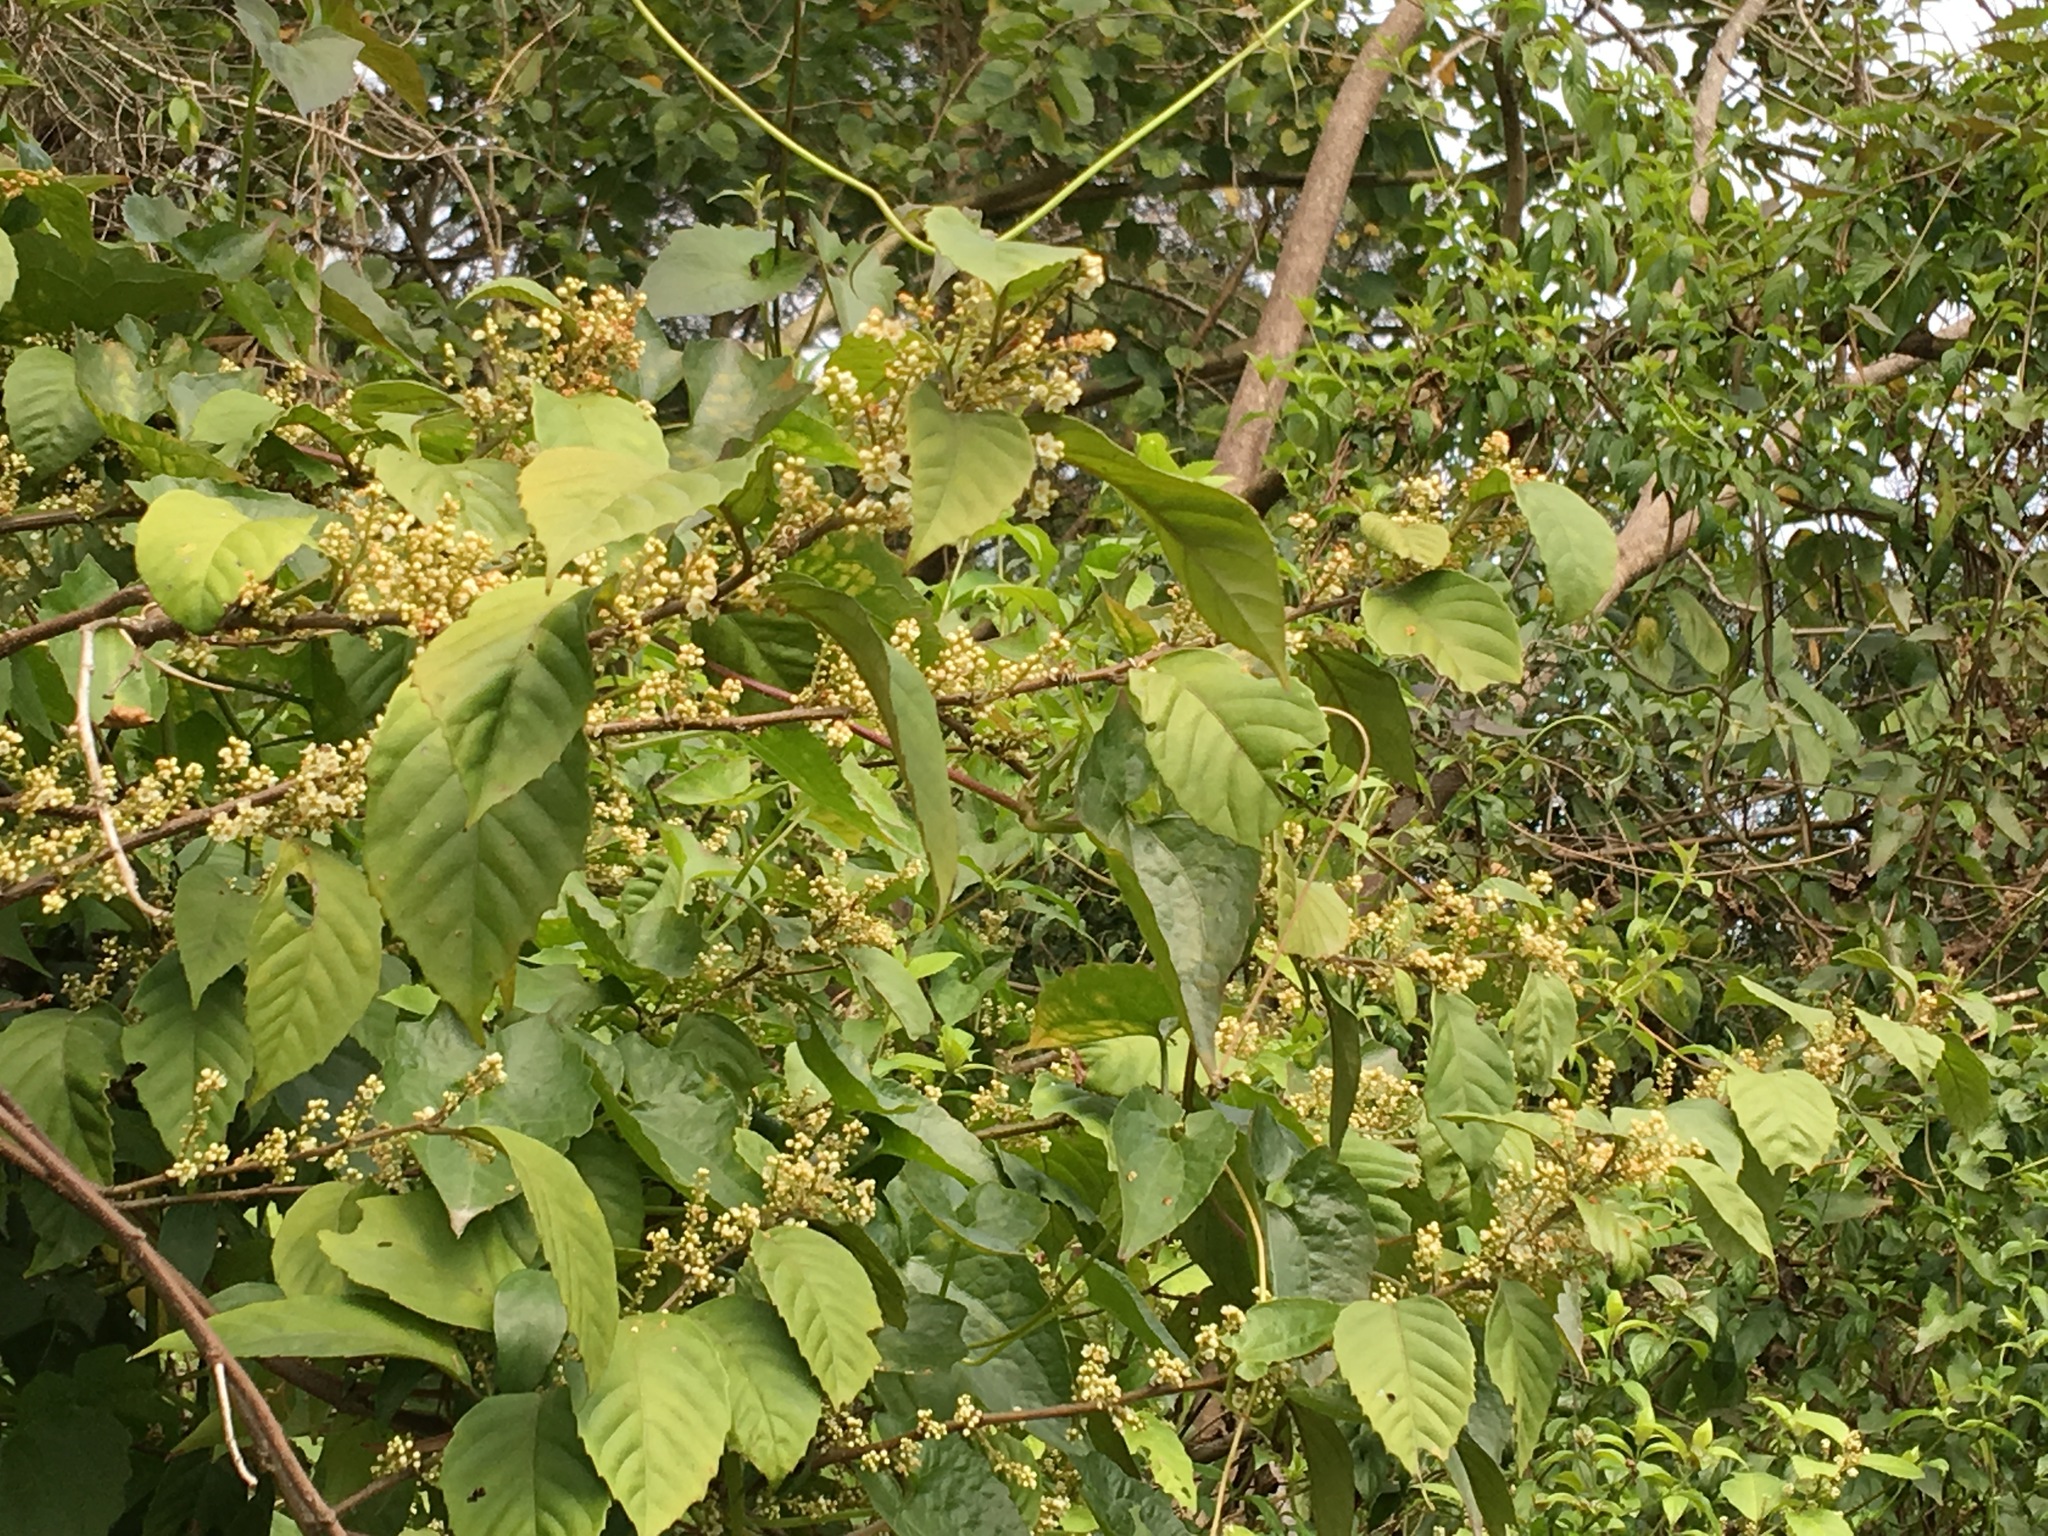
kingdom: Plantae
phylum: Tracheophyta
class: Magnoliopsida
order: Ericales
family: Primulaceae
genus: Maesa
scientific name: Maesa perlaria
